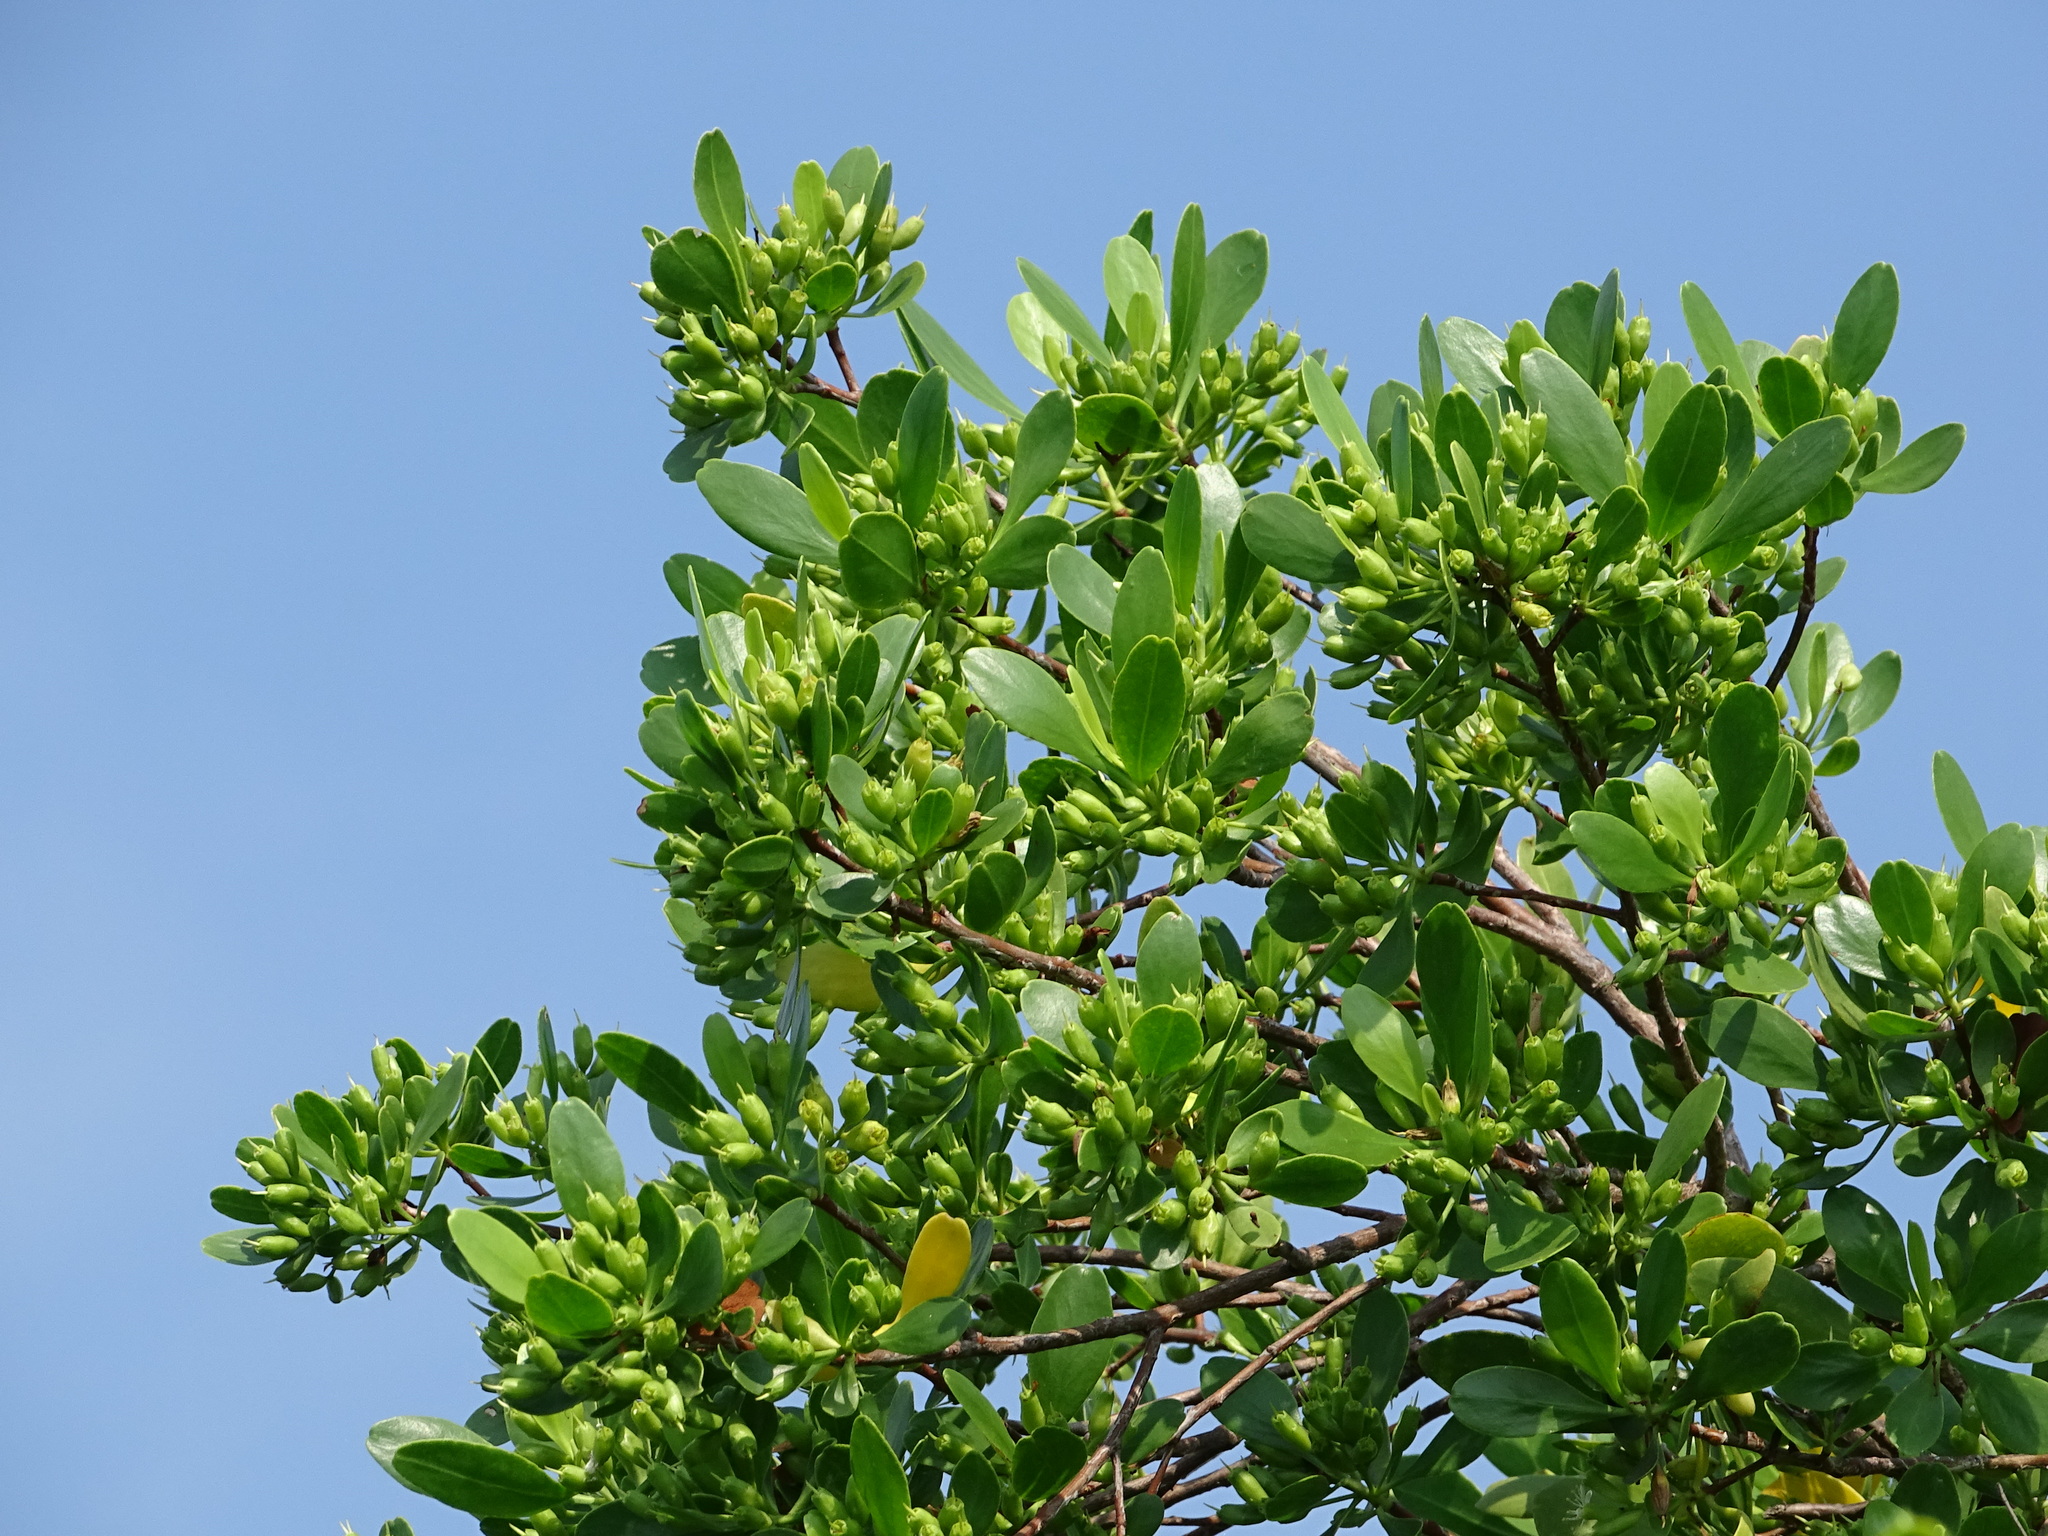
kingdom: Plantae
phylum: Tracheophyta
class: Magnoliopsida
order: Myrtales
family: Combretaceae
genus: Lumnitzera
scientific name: Lumnitzera racemosa
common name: White-flowered black mangrove
